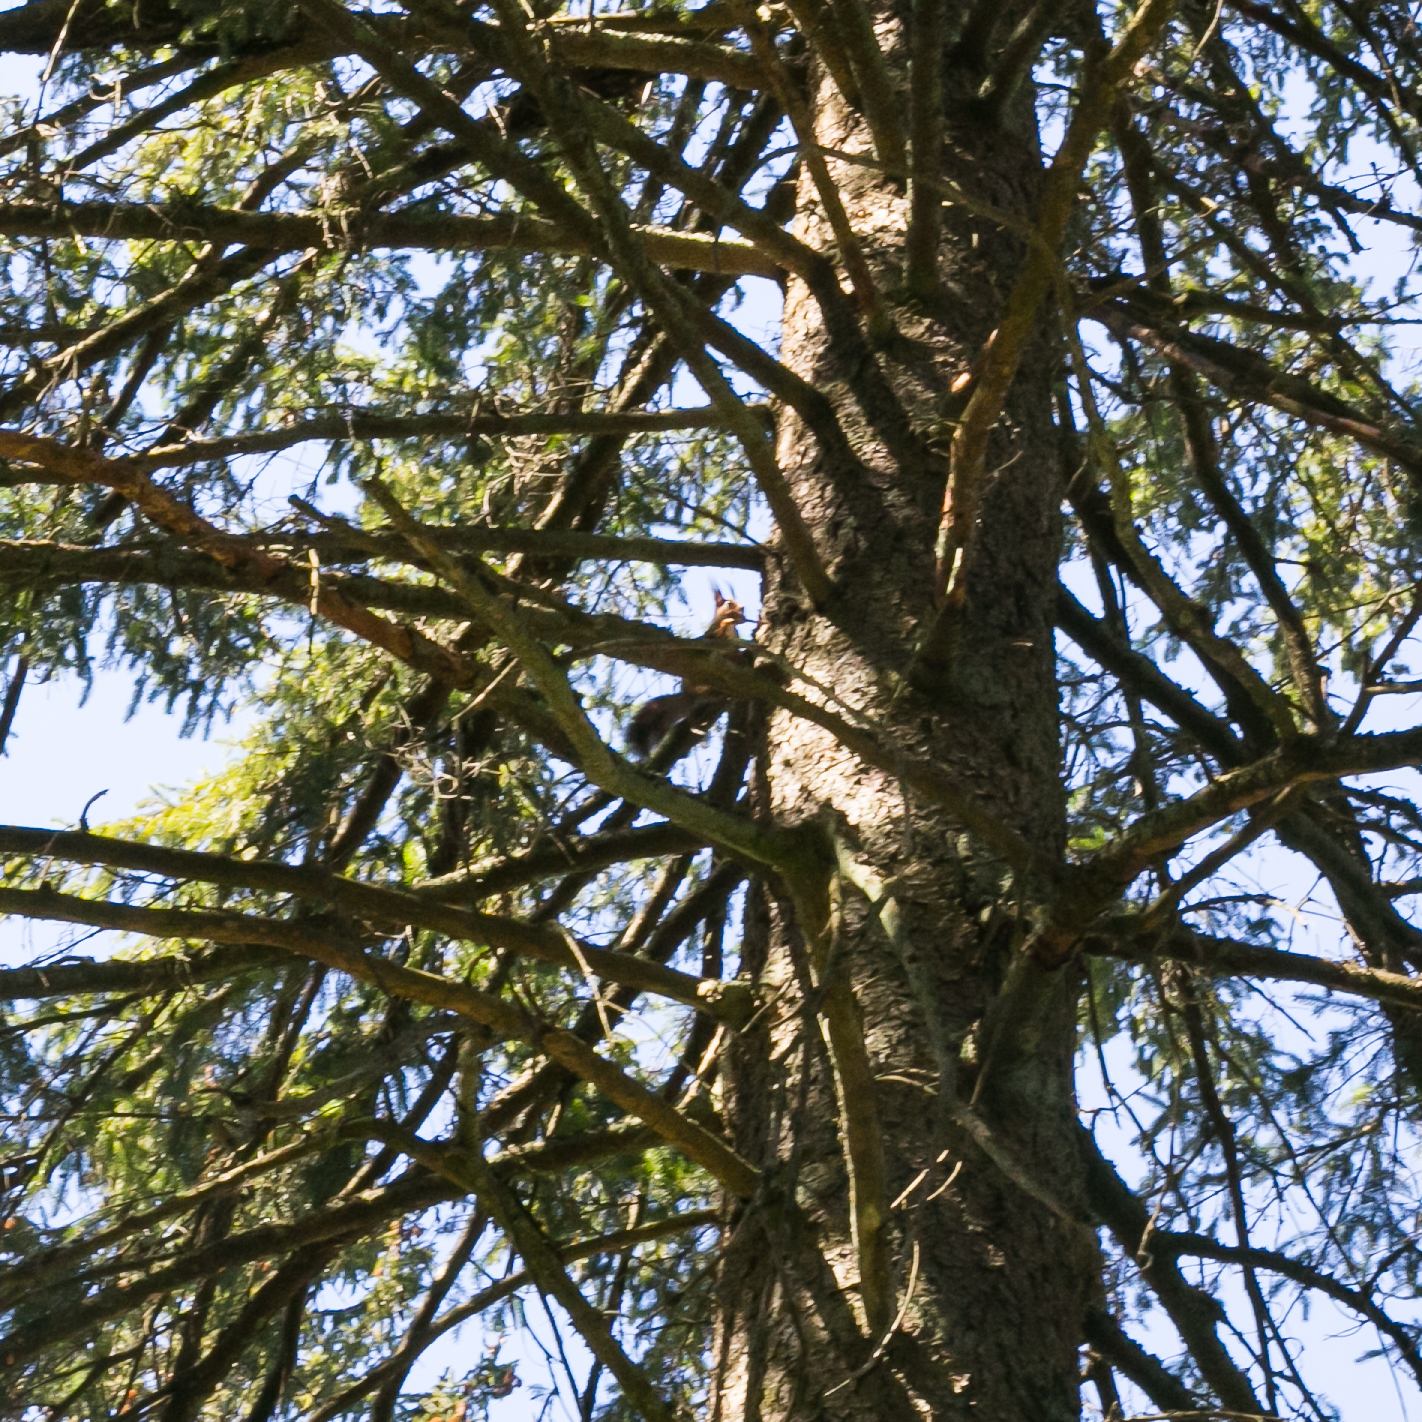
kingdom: Animalia
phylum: Chordata
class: Mammalia
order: Rodentia
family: Sciuridae
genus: Sciurus
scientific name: Sciurus vulgaris
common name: Eurasian red squirrel
